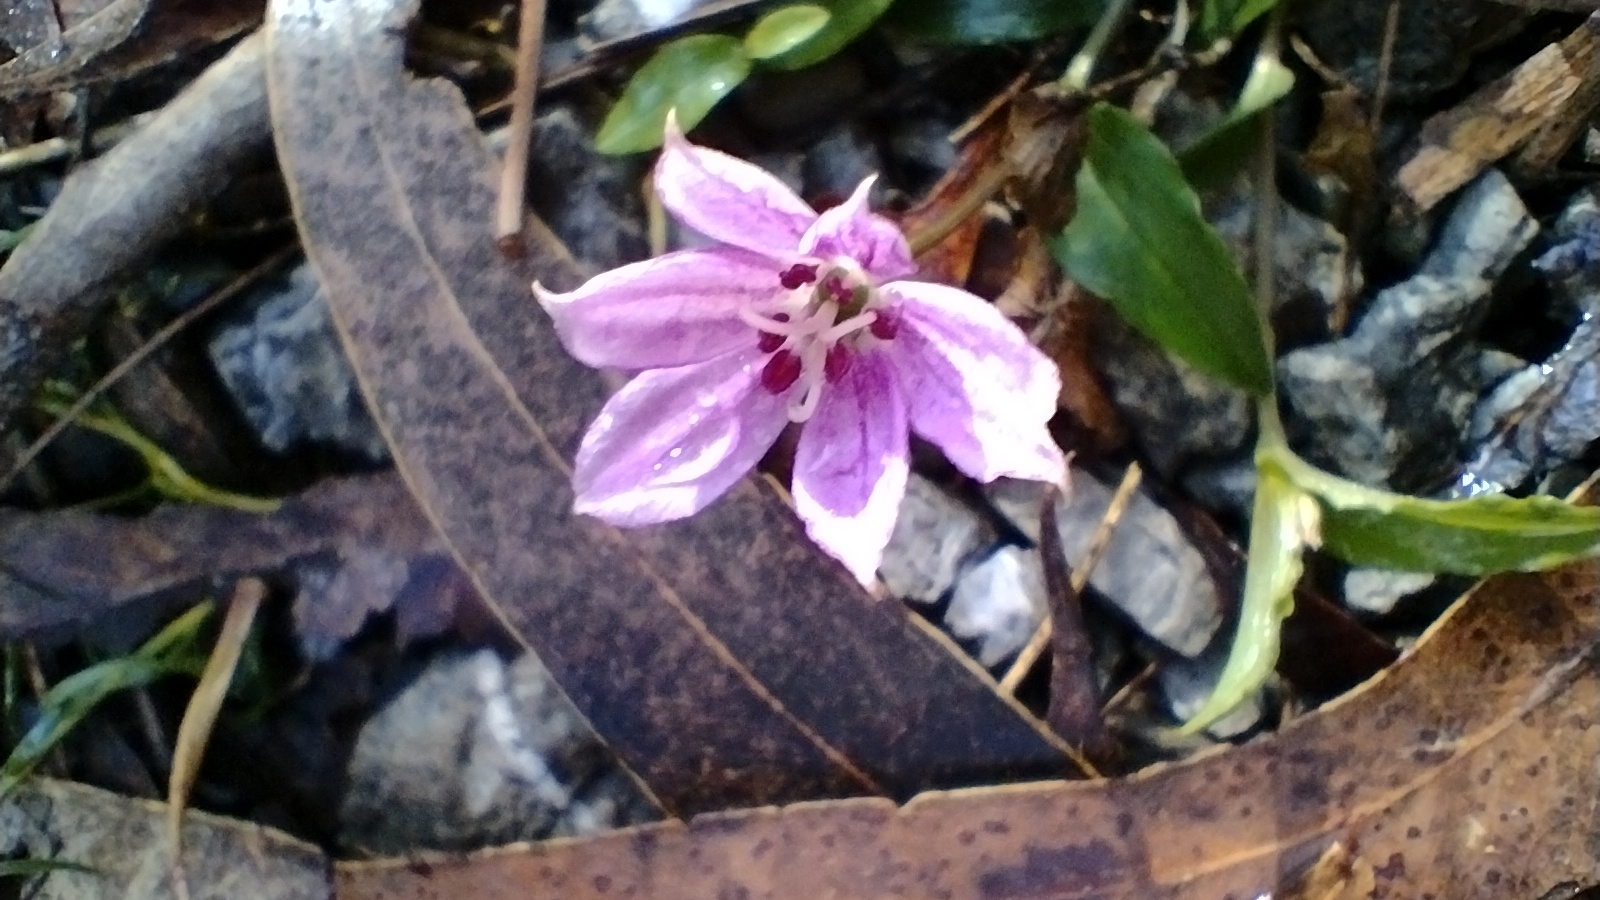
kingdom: Plantae
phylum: Tracheophyta
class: Liliopsida
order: Liliales
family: Colchicaceae
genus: Schelhammera
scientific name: Schelhammera undulata
